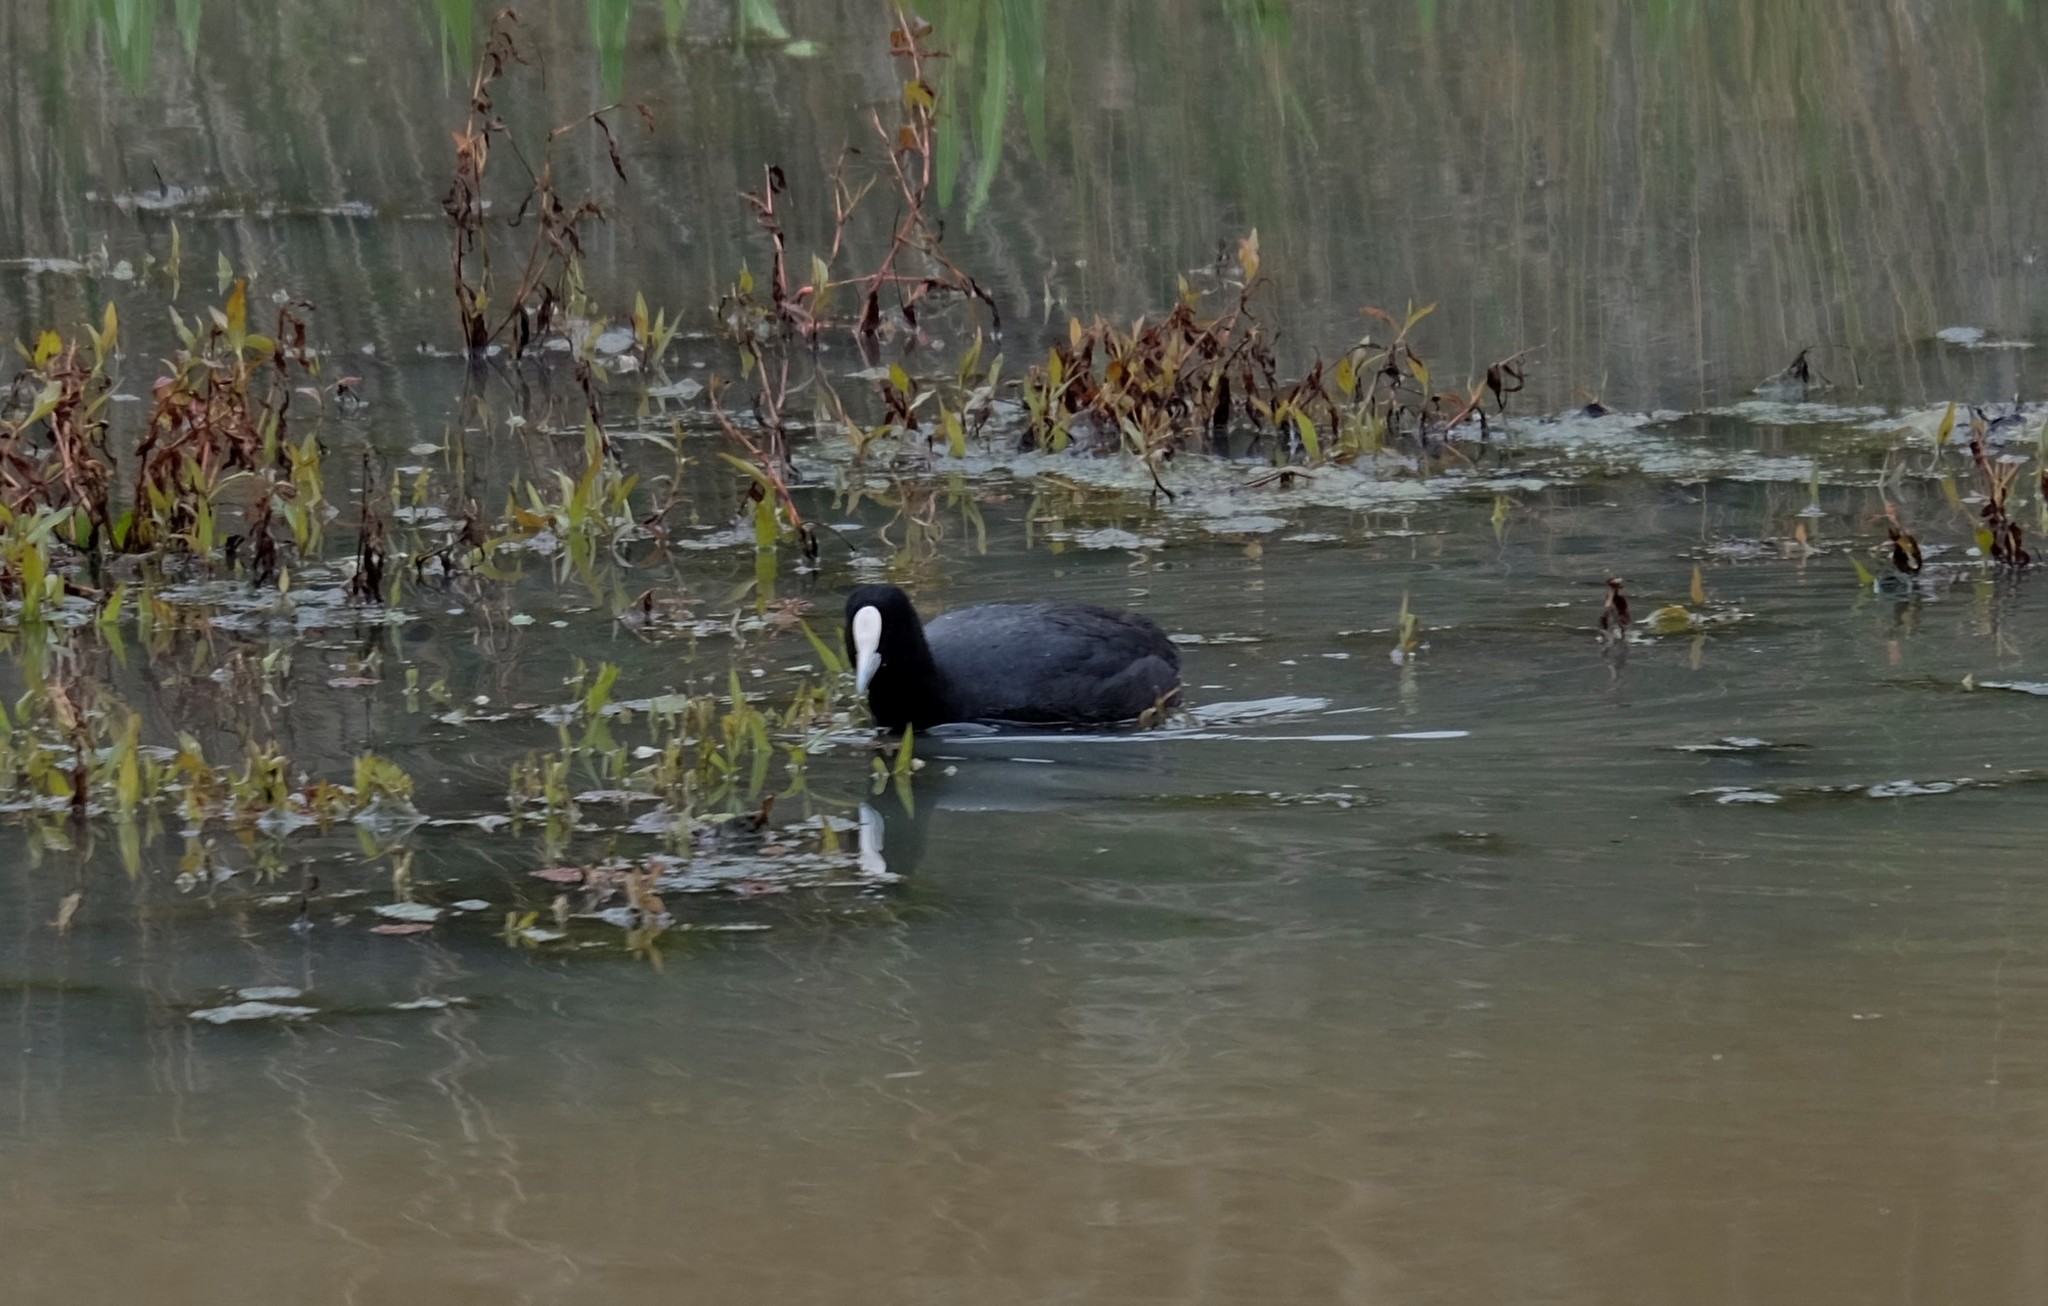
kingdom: Animalia
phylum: Chordata
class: Aves
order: Gruiformes
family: Rallidae
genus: Fulica
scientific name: Fulica atra
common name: Eurasian coot
